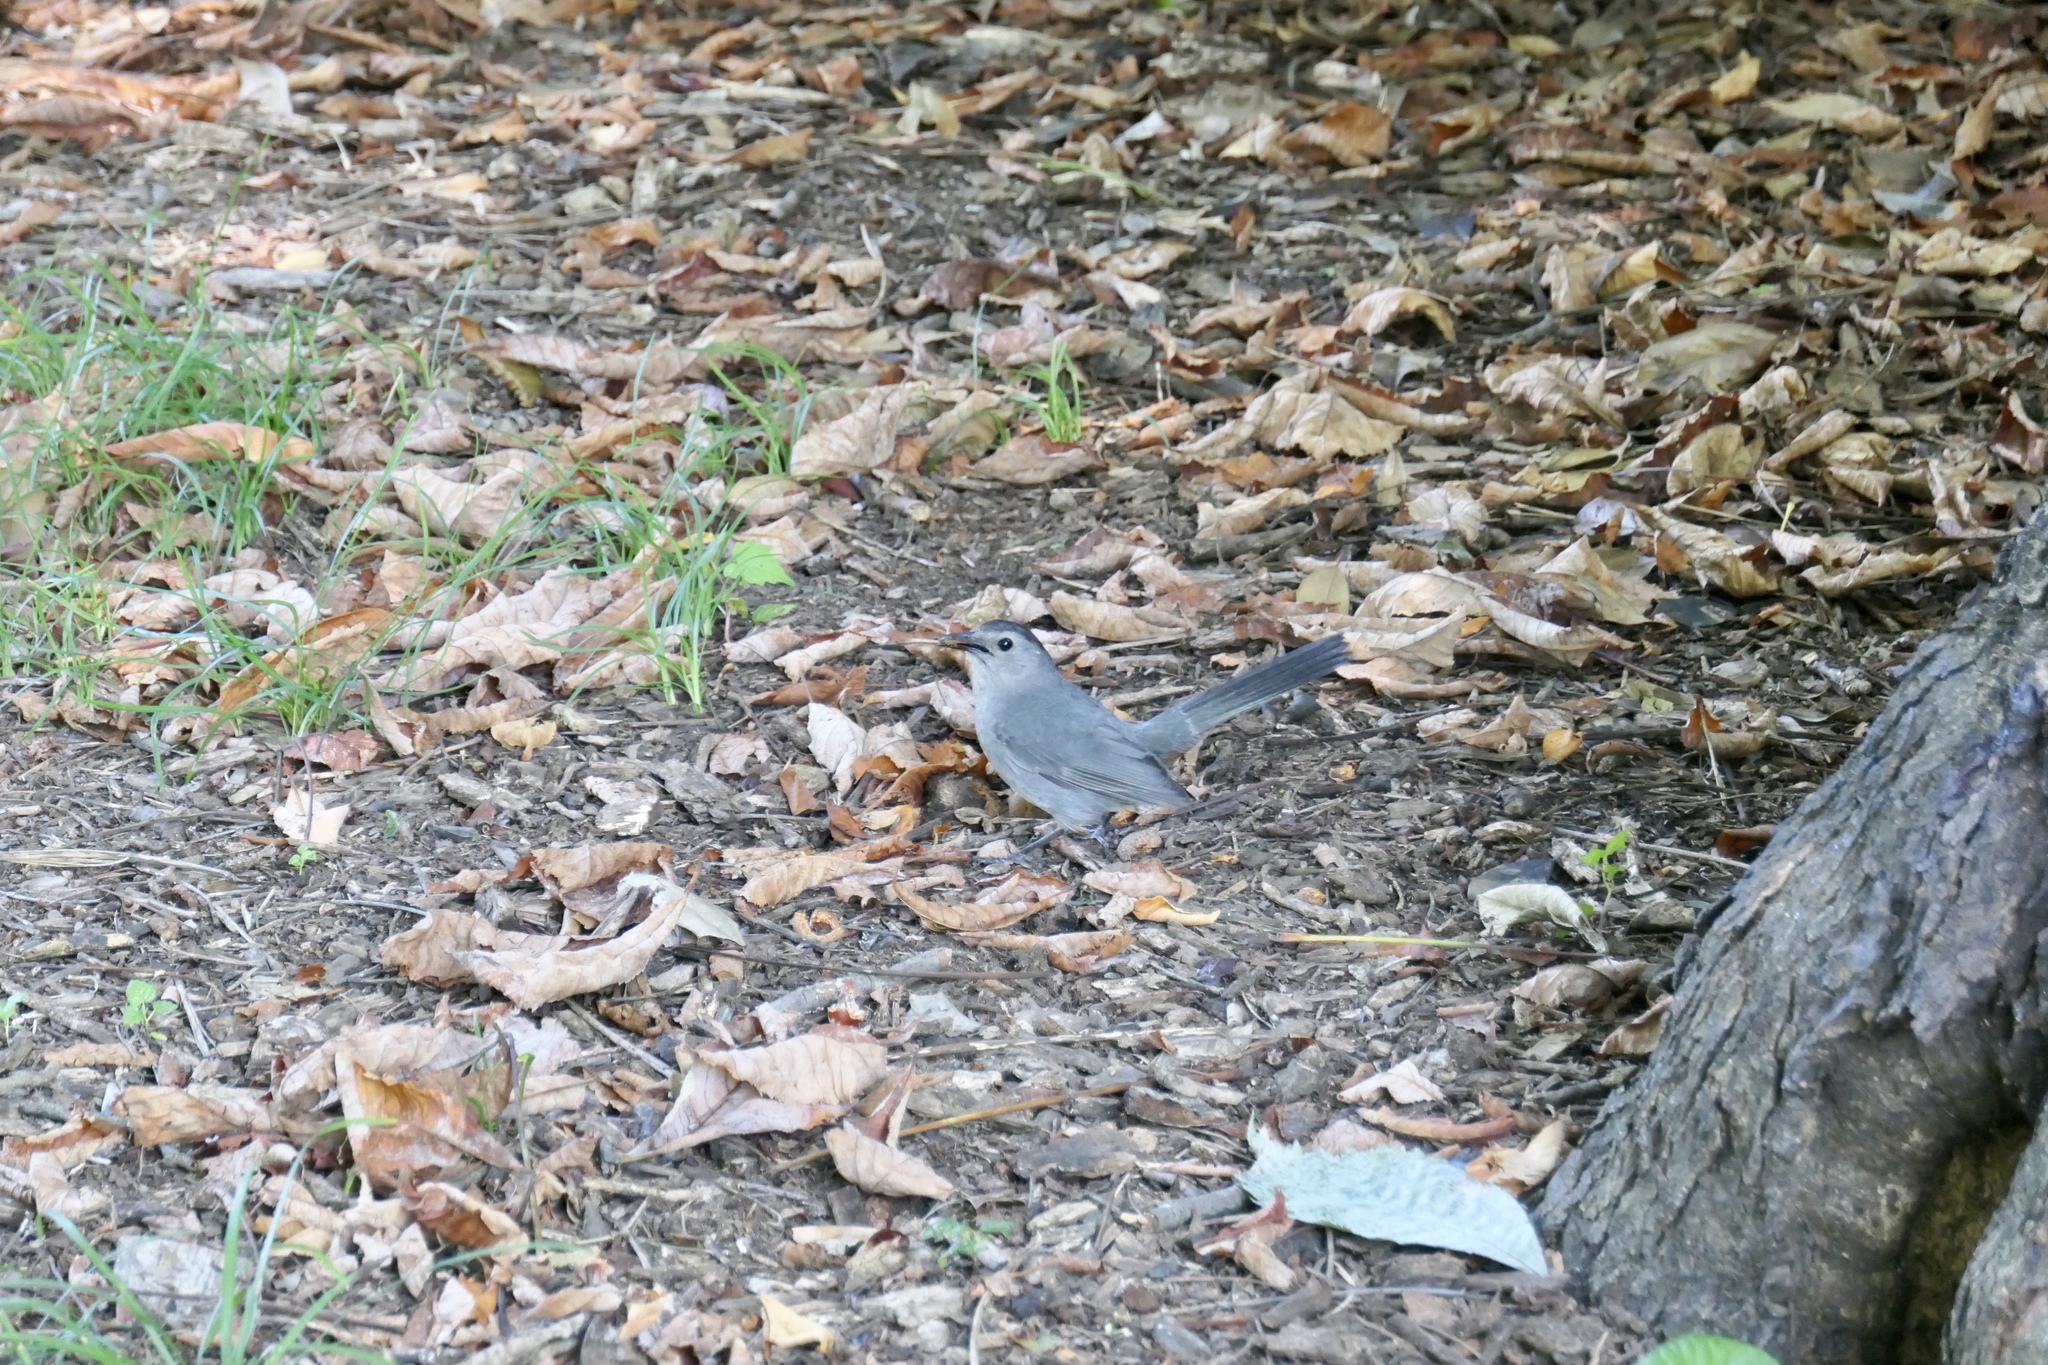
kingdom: Animalia
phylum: Chordata
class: Aves
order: Passeriformes
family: Mimidae
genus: Dumetella
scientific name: Dumetella carolinensis
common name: Gray catbird
